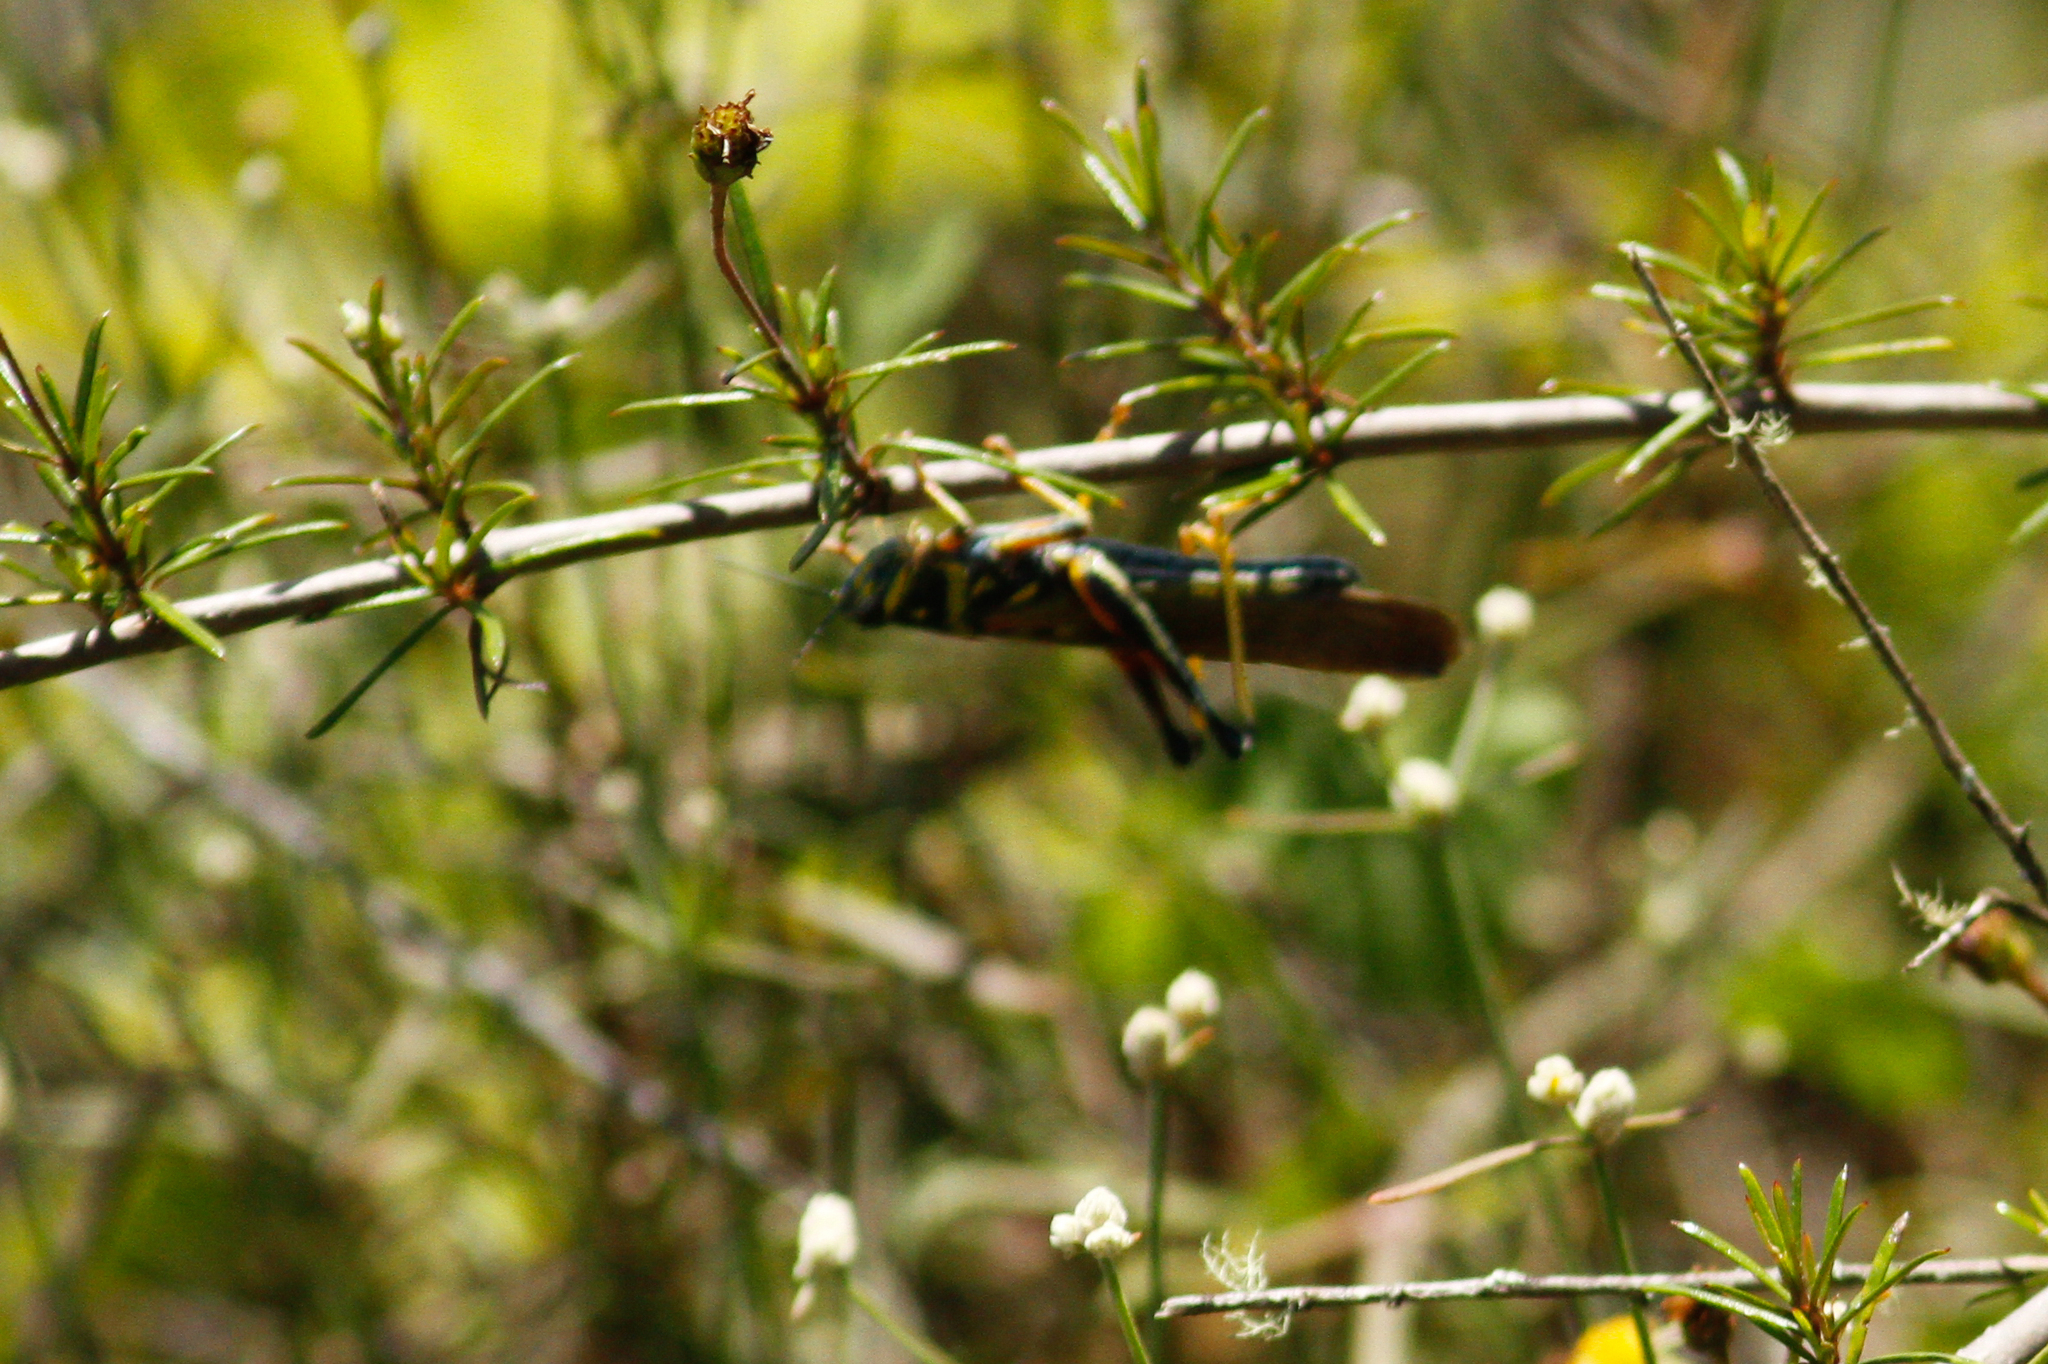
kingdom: Animalia
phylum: Arthropoda
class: Insecta
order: Orthoptera
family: Acrididae
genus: Schistocerca
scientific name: Schistocerca melanocera
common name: Large painted locust
